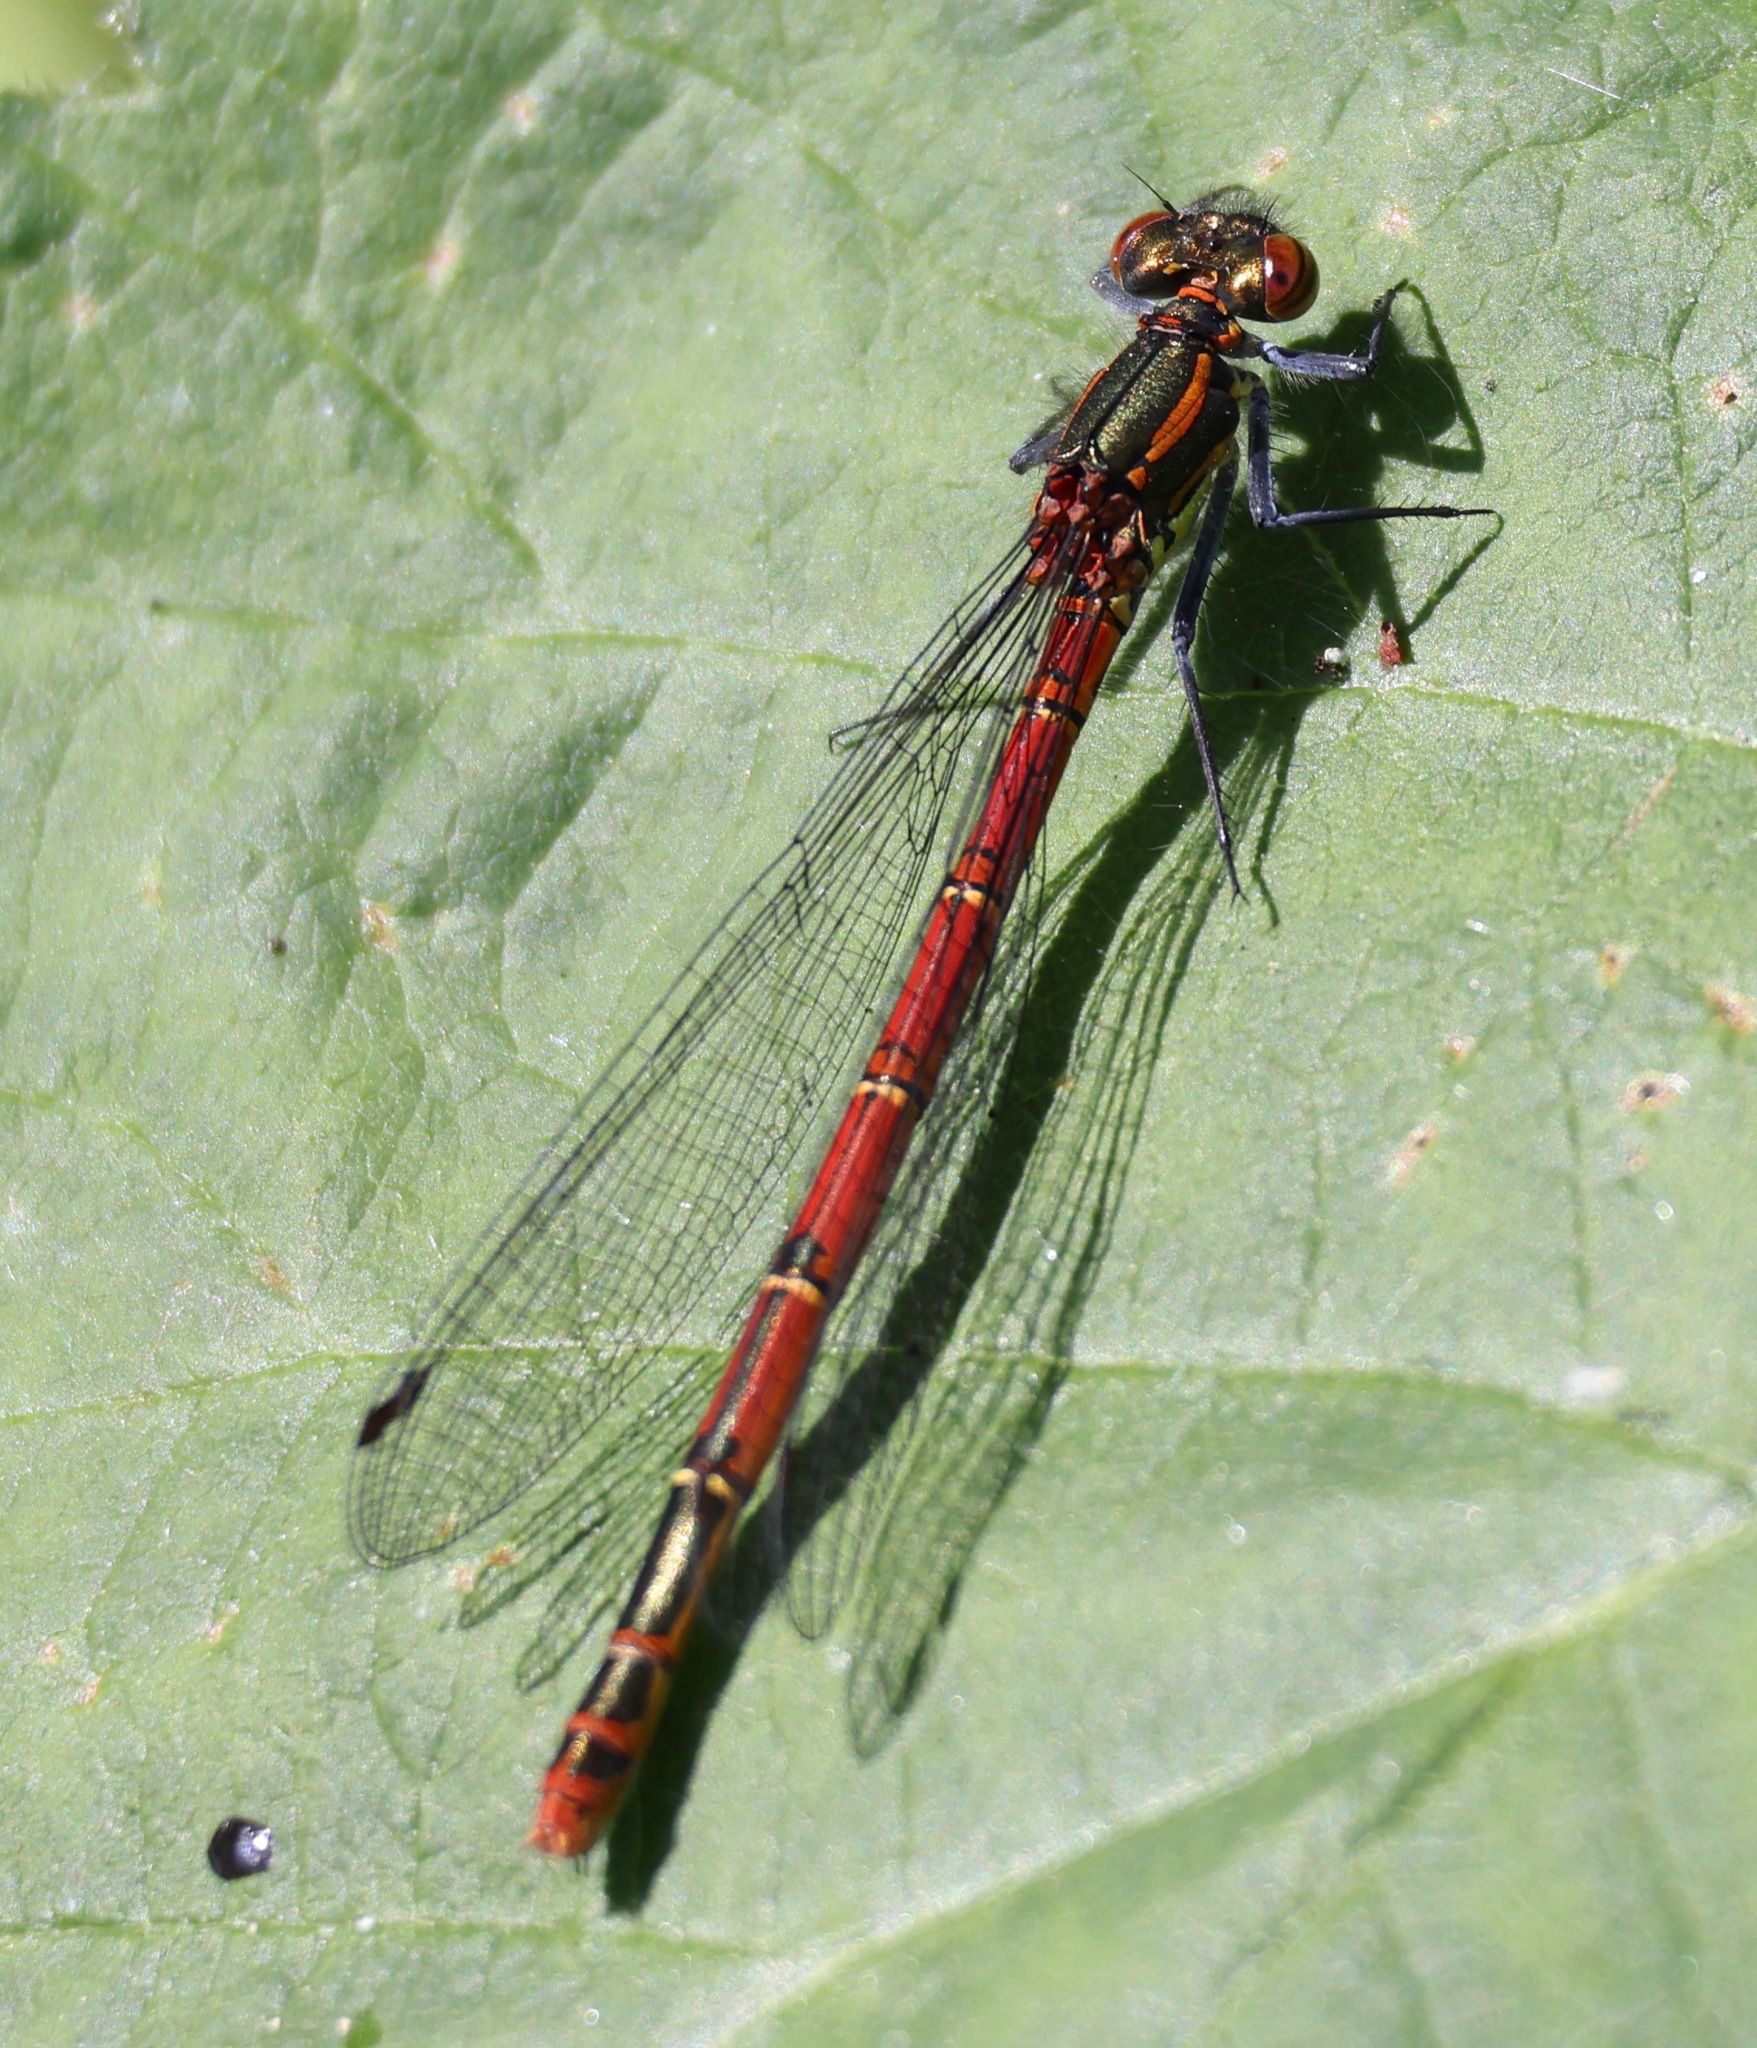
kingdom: Animalia
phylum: Arthropoda
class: Insecta
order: Odonata
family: Coenagrionidae
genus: Pyrrhosoma
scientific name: Pyrrhosoma nymphula
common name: Large red damsel
